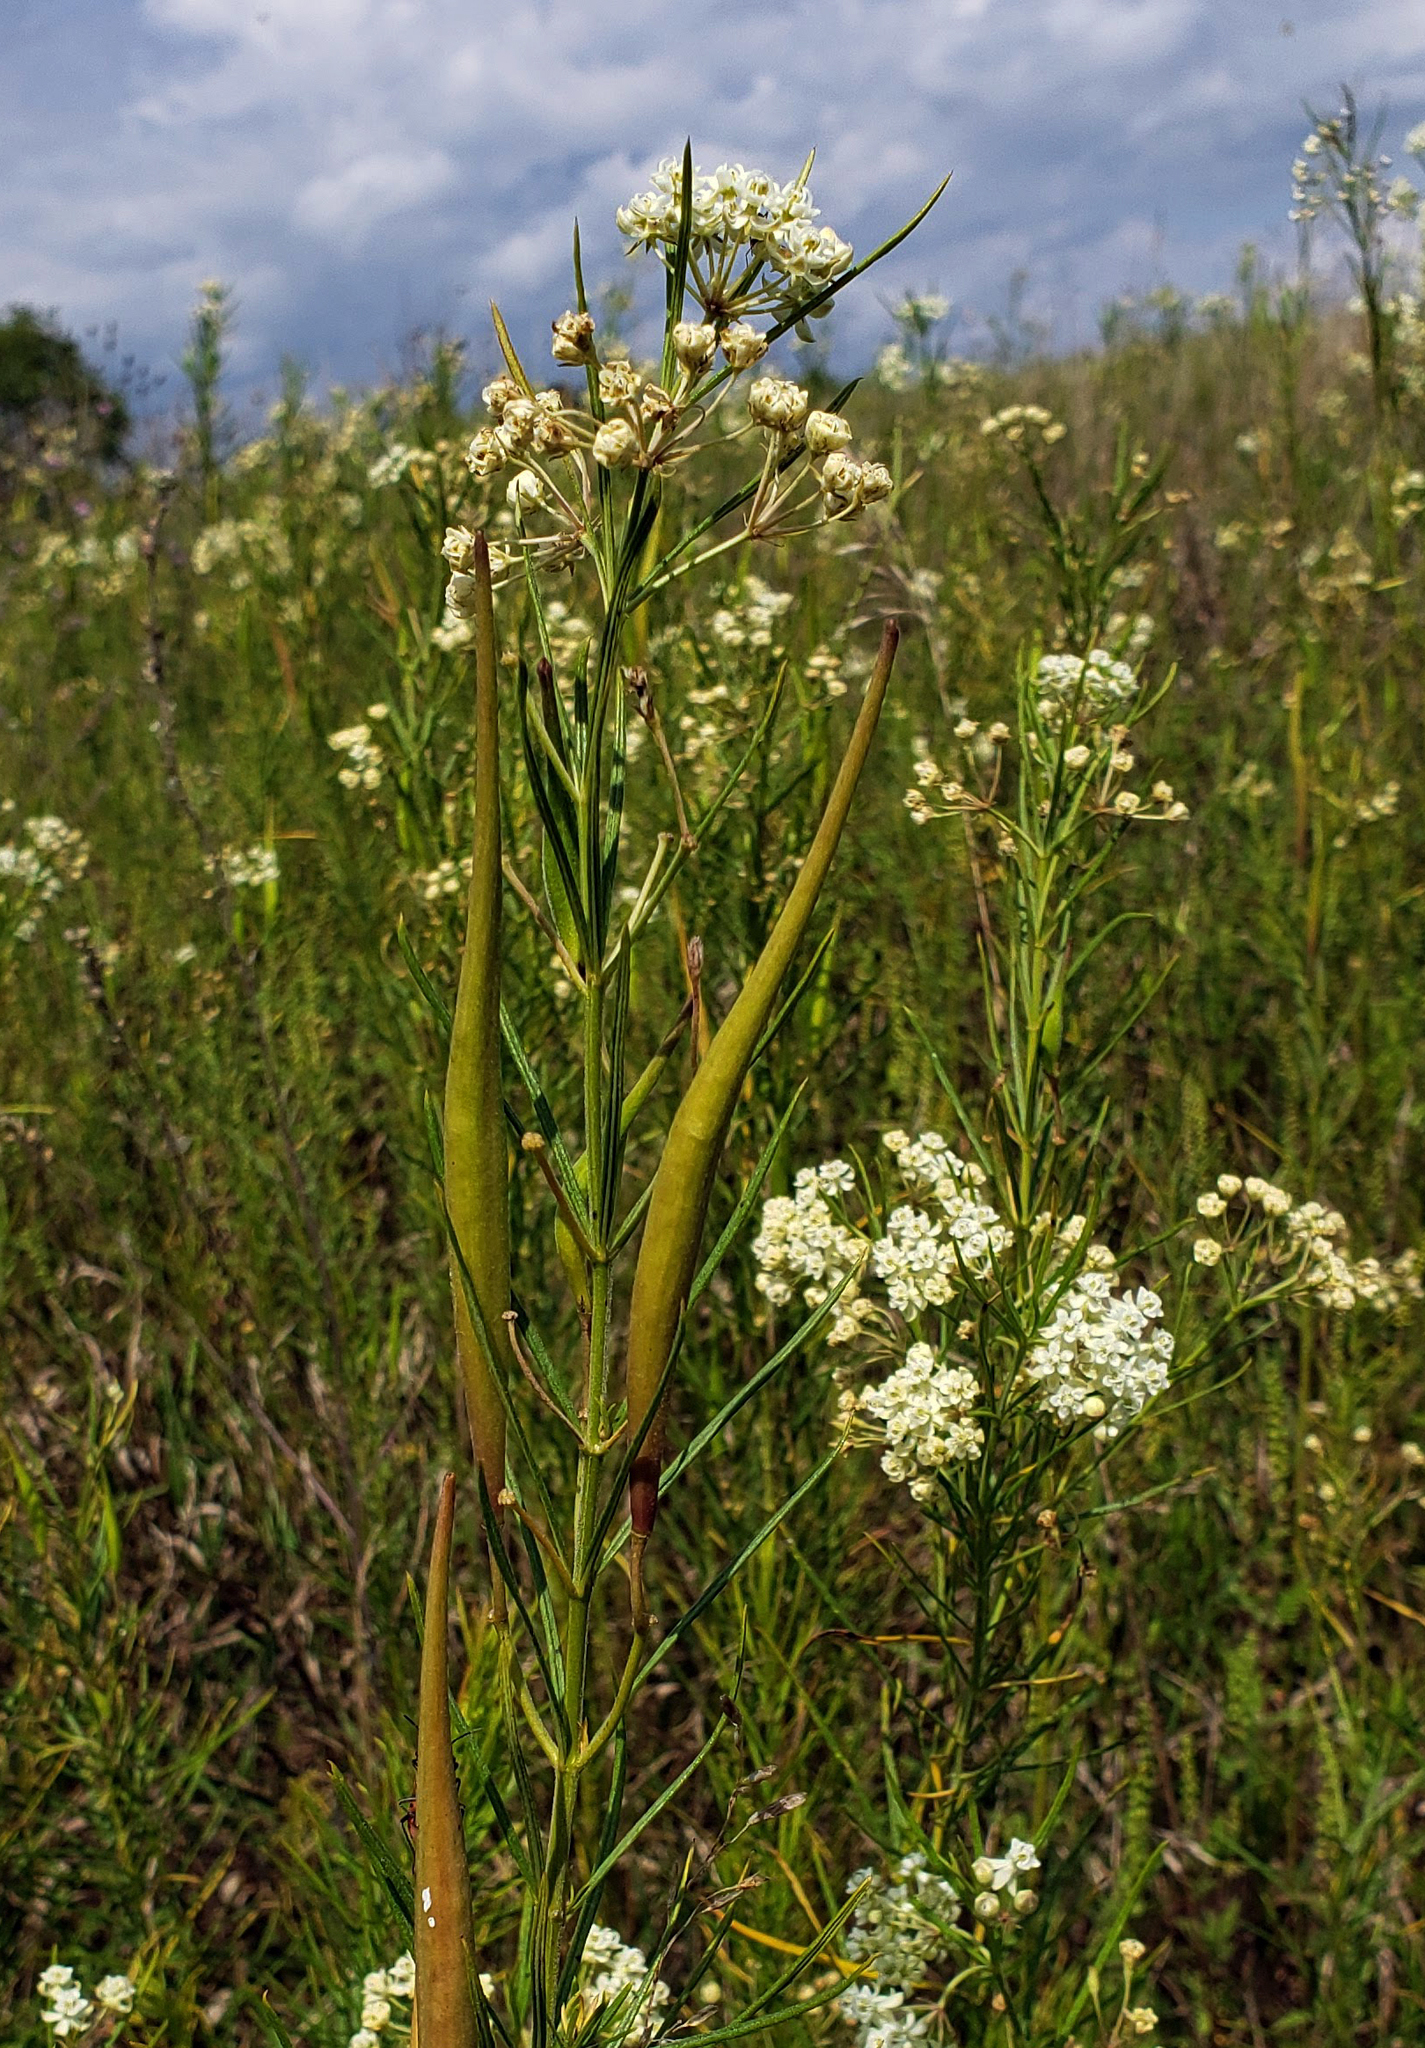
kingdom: Plantae
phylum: Tracheophyta
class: Magnoliopsida
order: Gentianales
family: Apocynaceae
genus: Asclepias
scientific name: Asclepias verticillata
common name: Eastern whorled milkweed
